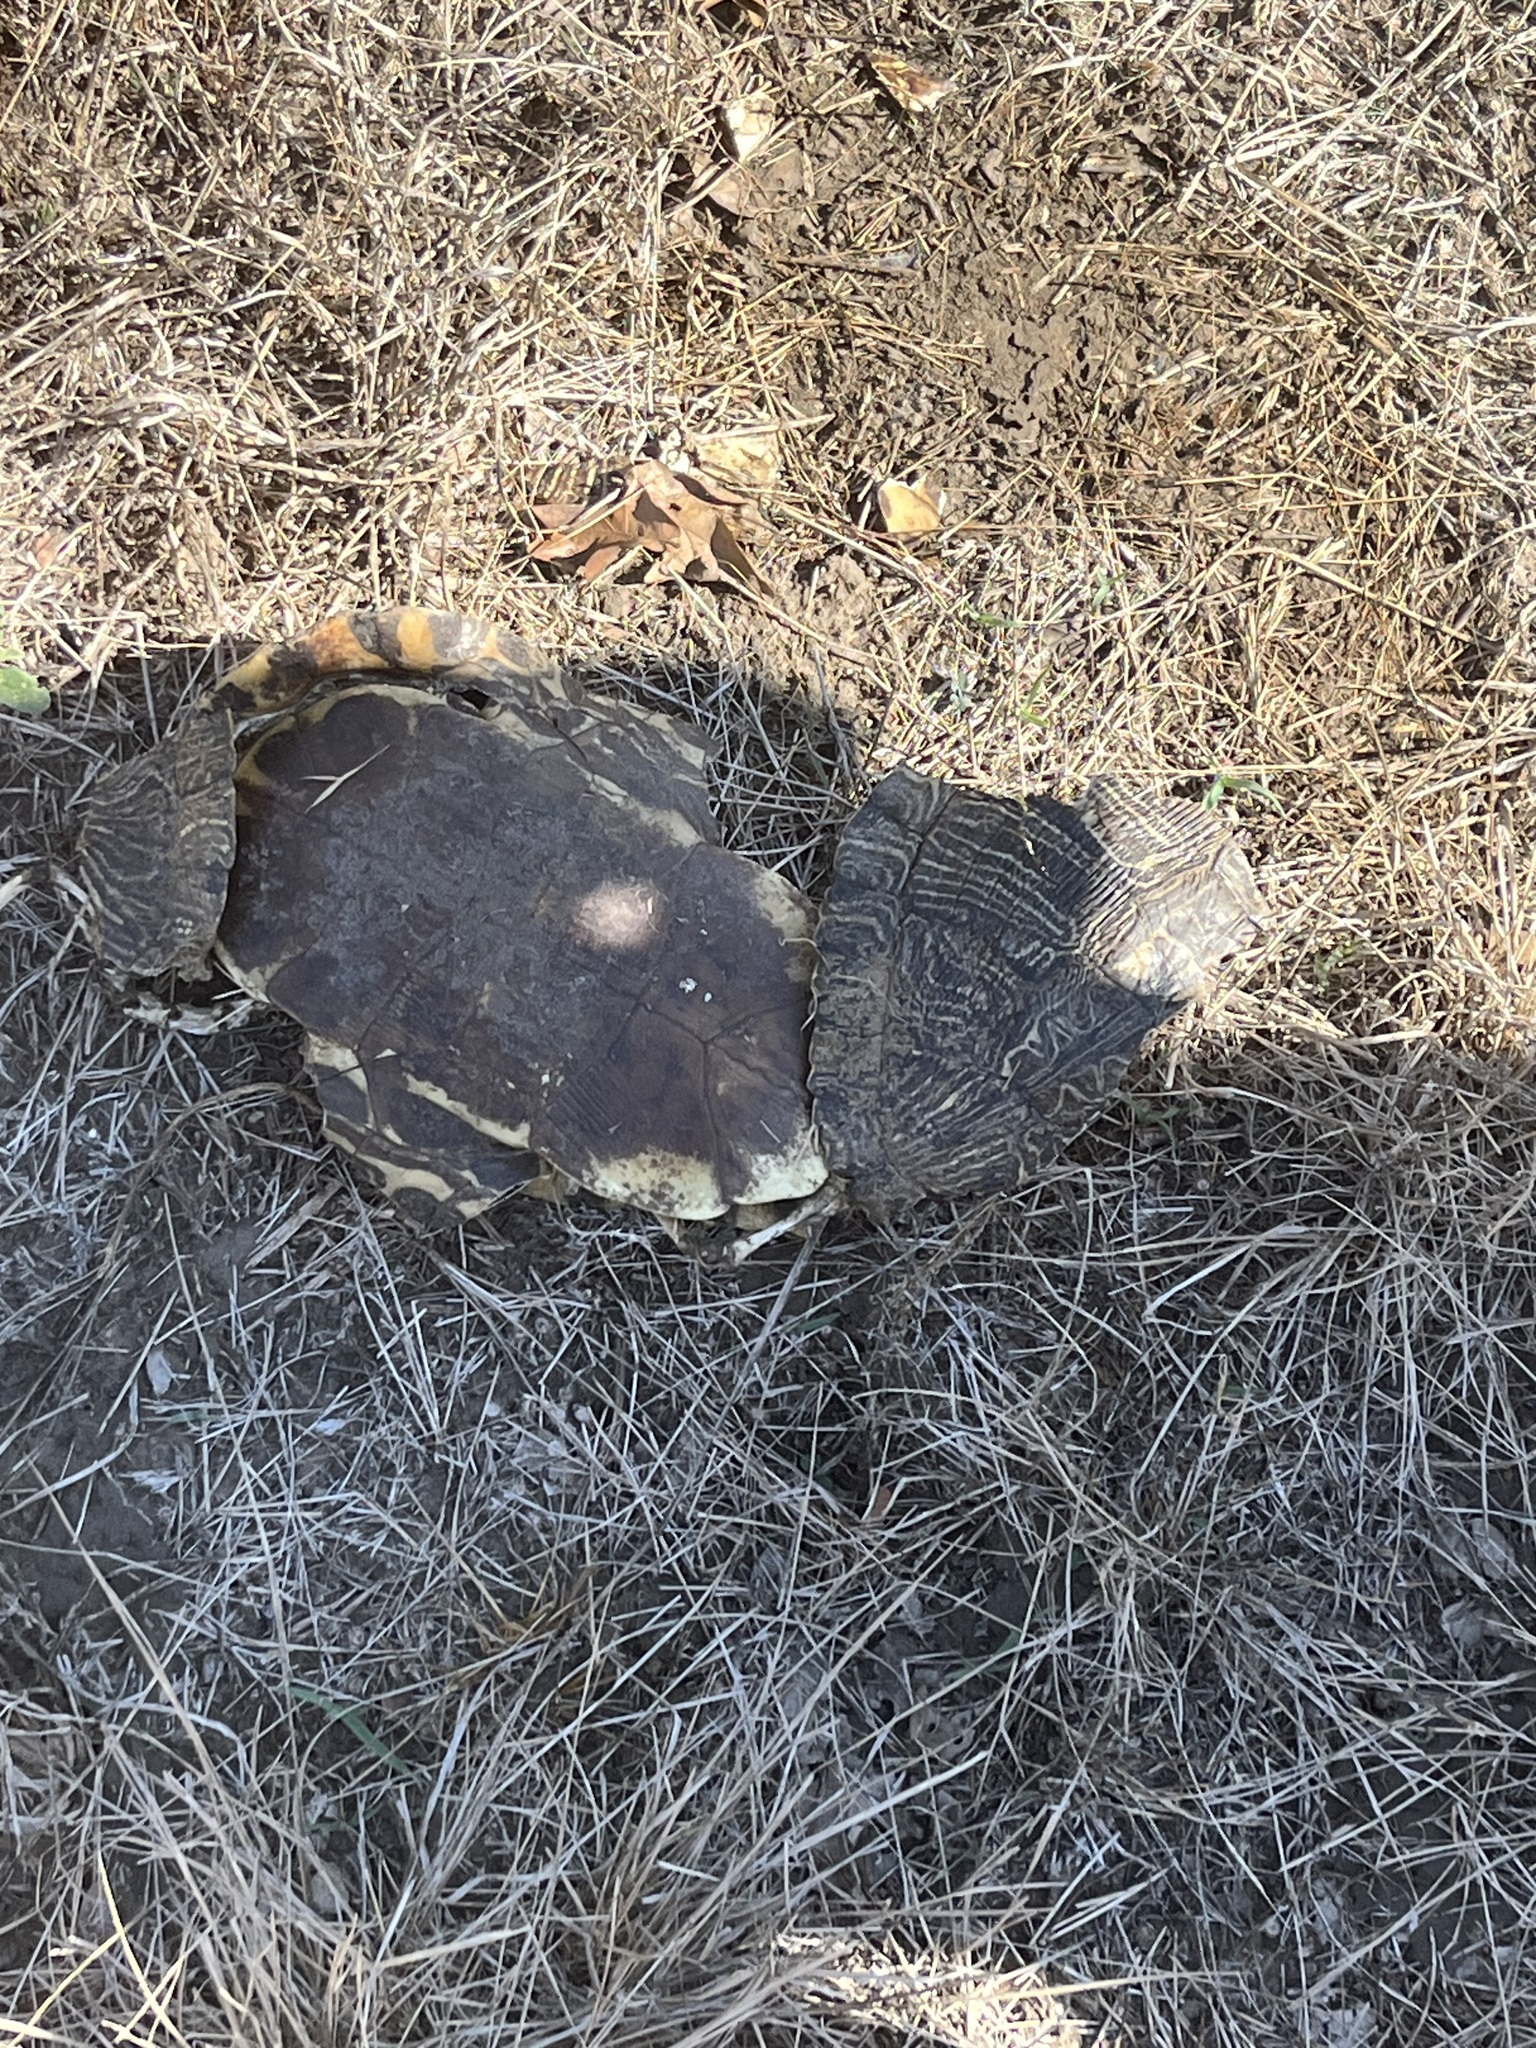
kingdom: Animalia
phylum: Chordata
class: Testudines
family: Emydidae
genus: Trachemys
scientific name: Trachemys scripta
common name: Slider
